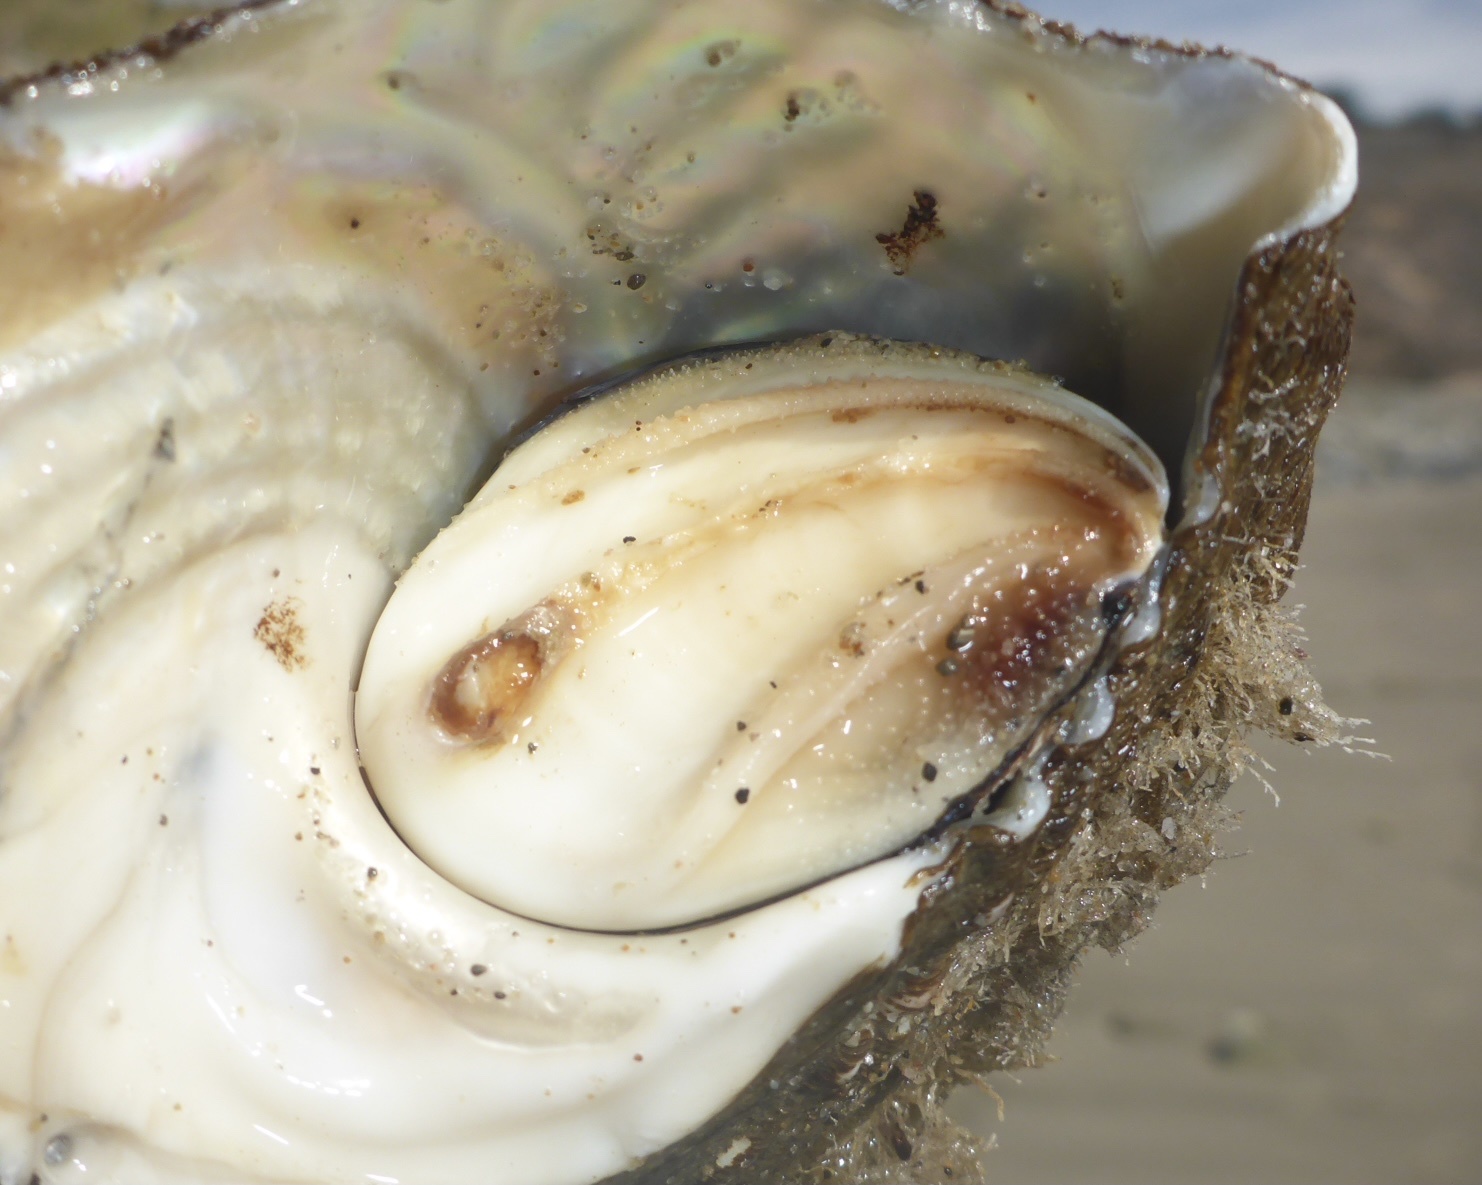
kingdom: Animalia
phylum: Mollusca
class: Gastropoda
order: Trochida
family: Turbinidae
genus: Megastraea
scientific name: Megastraea undosa
